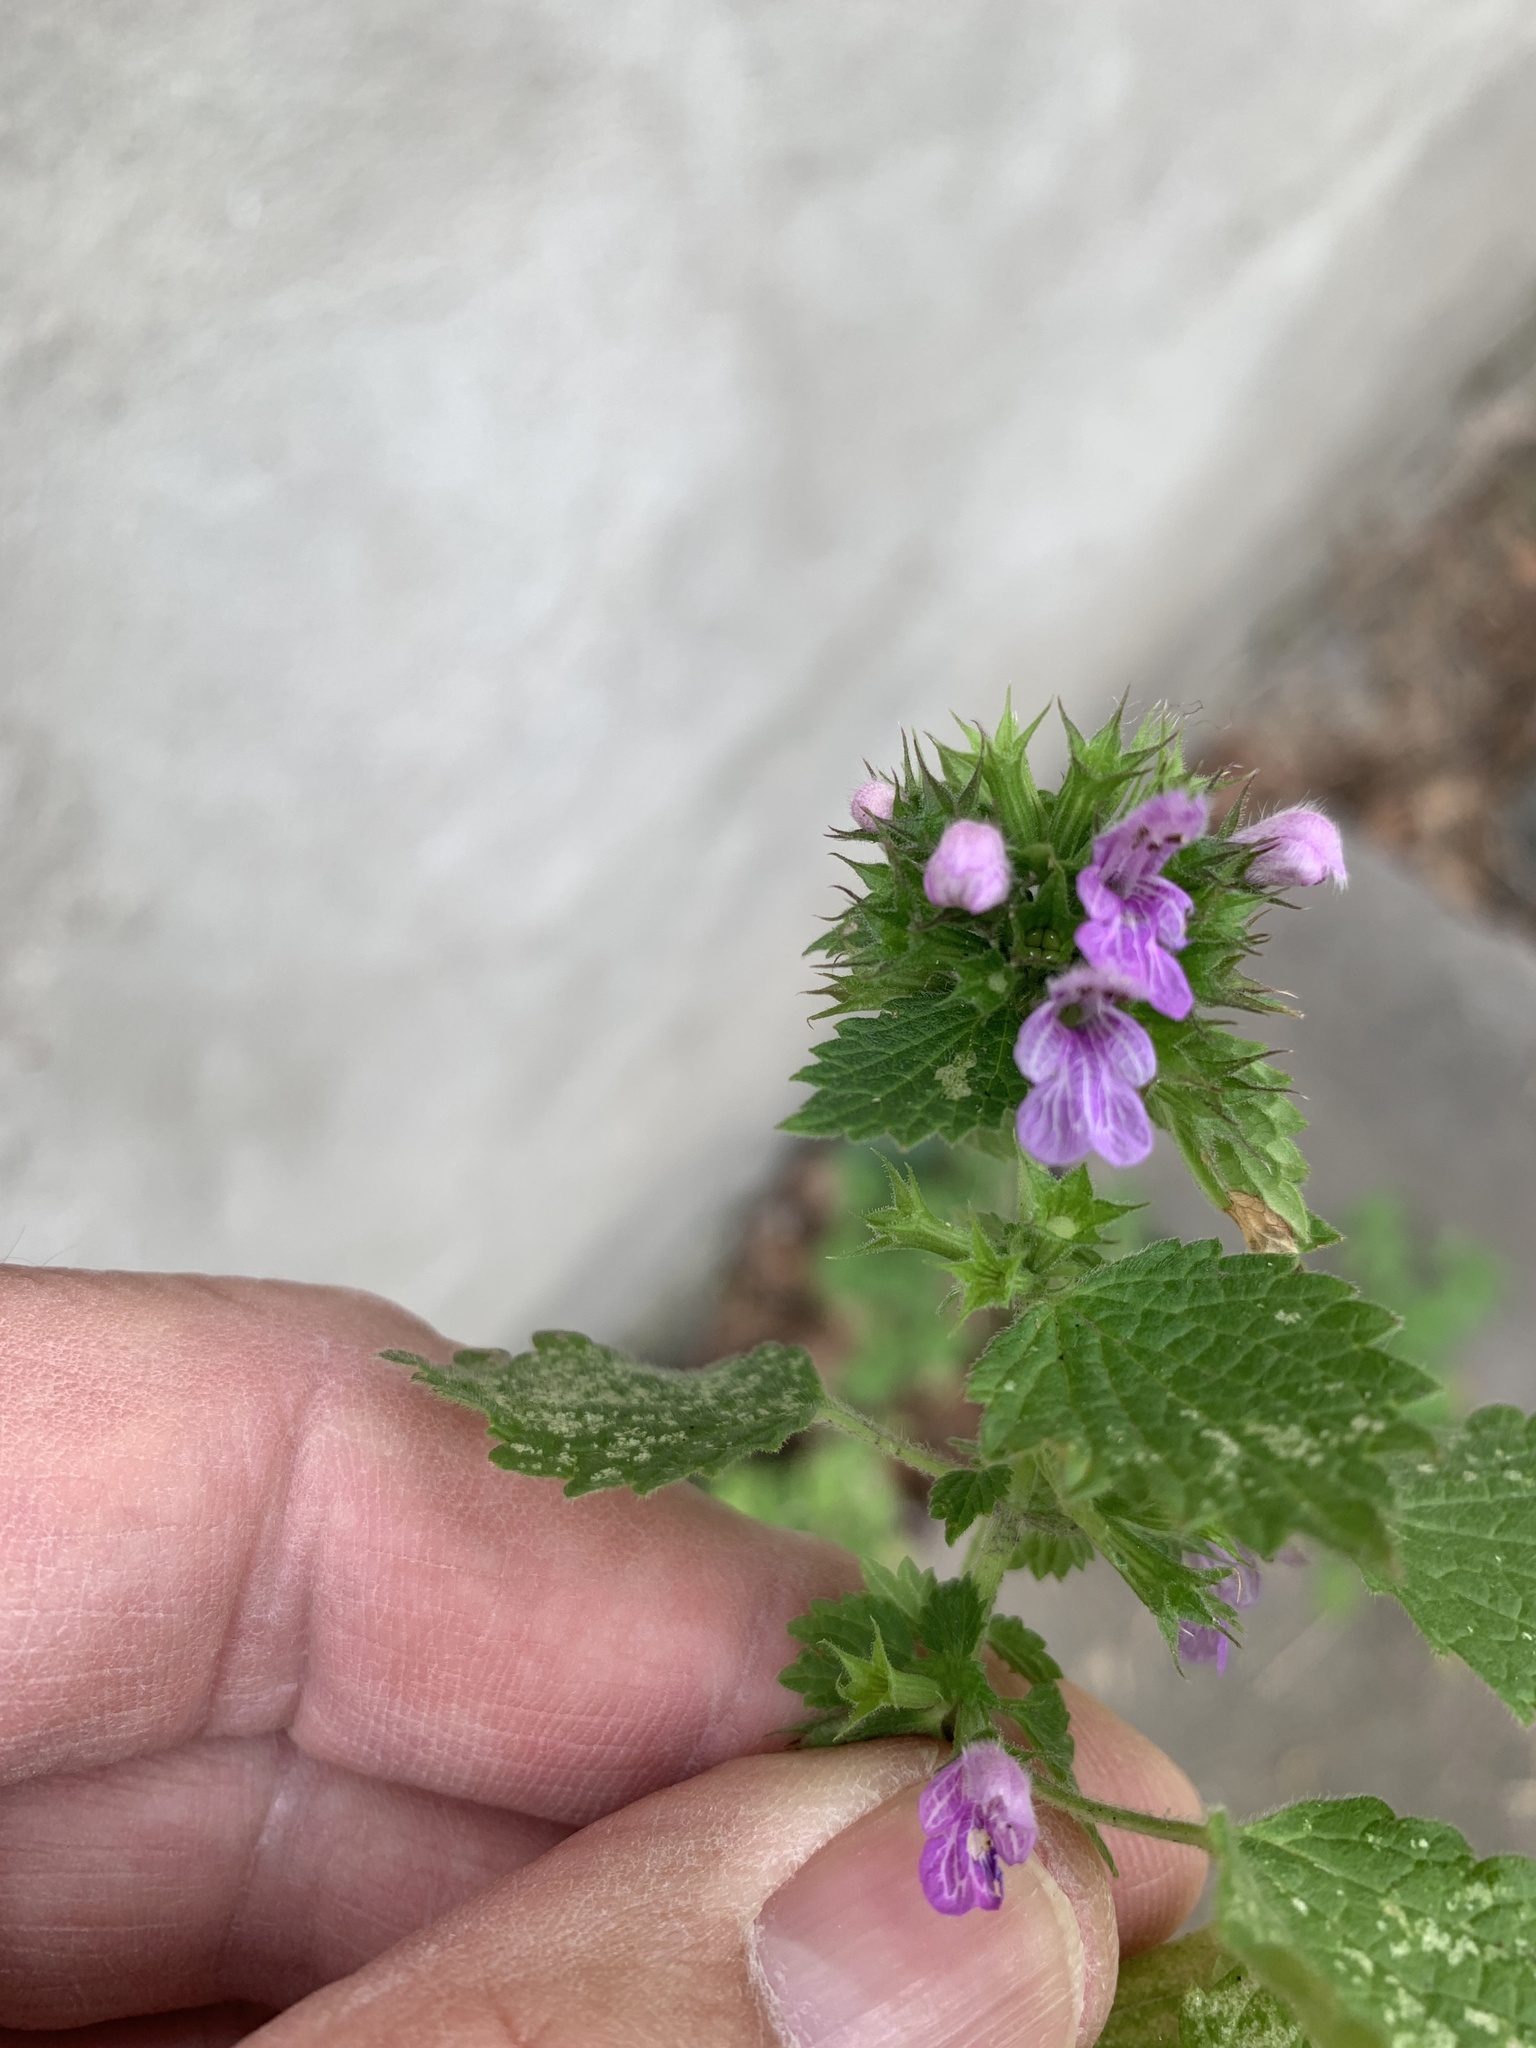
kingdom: Plantae
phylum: Tracheophyta
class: Magnoliopsida
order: Lamiales
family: Lamiaceae
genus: Ballota
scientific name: Ballota nigra
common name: Black horehound
